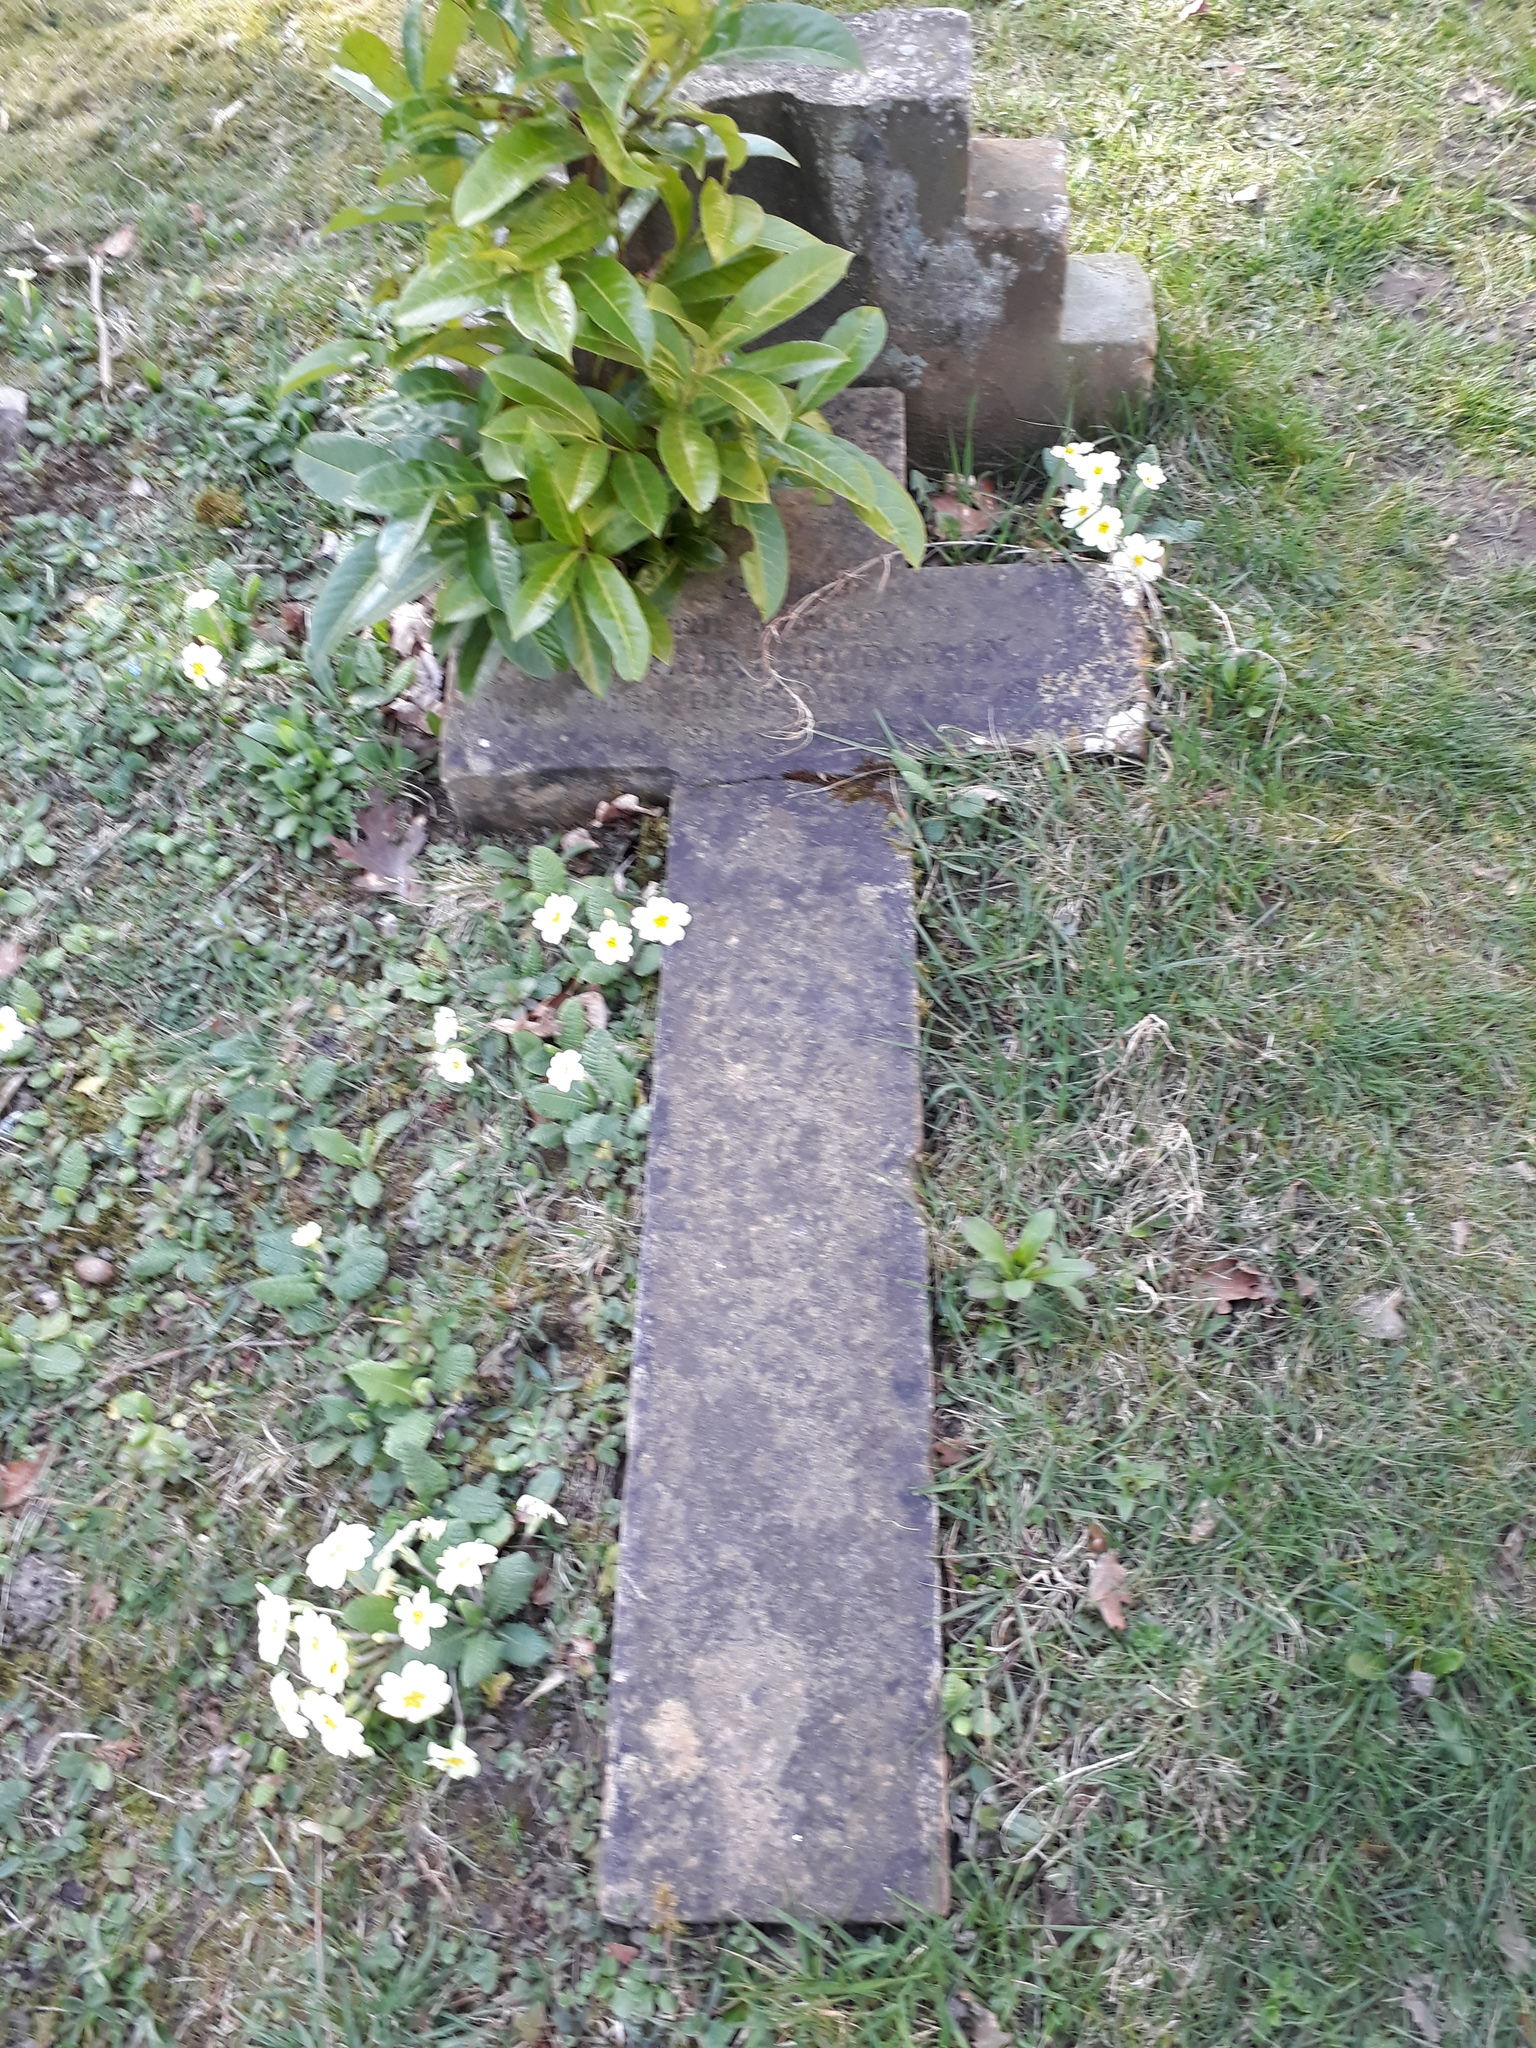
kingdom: Plantae
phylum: Tracheophyta
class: Magnoliopsida
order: Ericales
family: Primulaceae
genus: Primula
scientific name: Primula vulgaris
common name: Primrose
